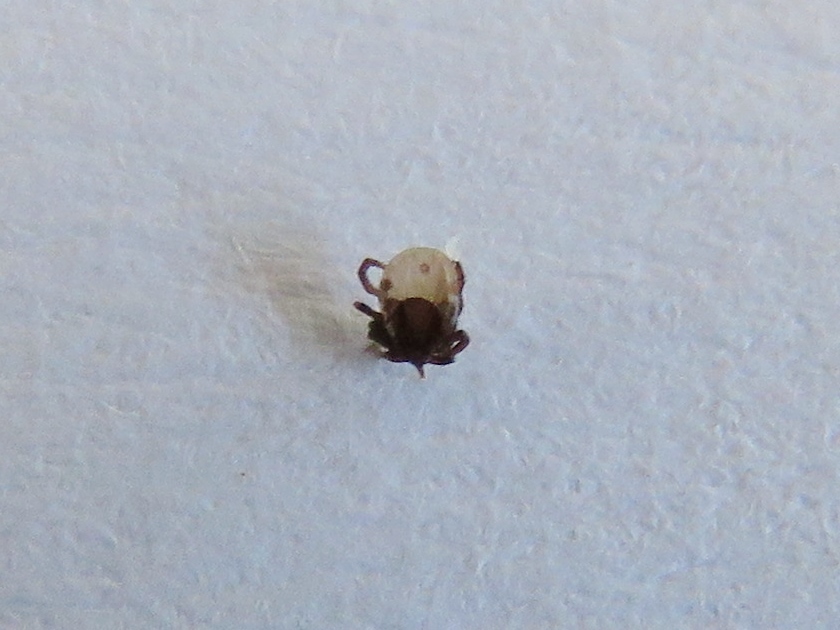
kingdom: Animalia
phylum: Arthropoda
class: Arachnida
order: Ixodida
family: Ixodidae
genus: Ixodes
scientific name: Ixodes ricinus
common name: Castor bean tick
